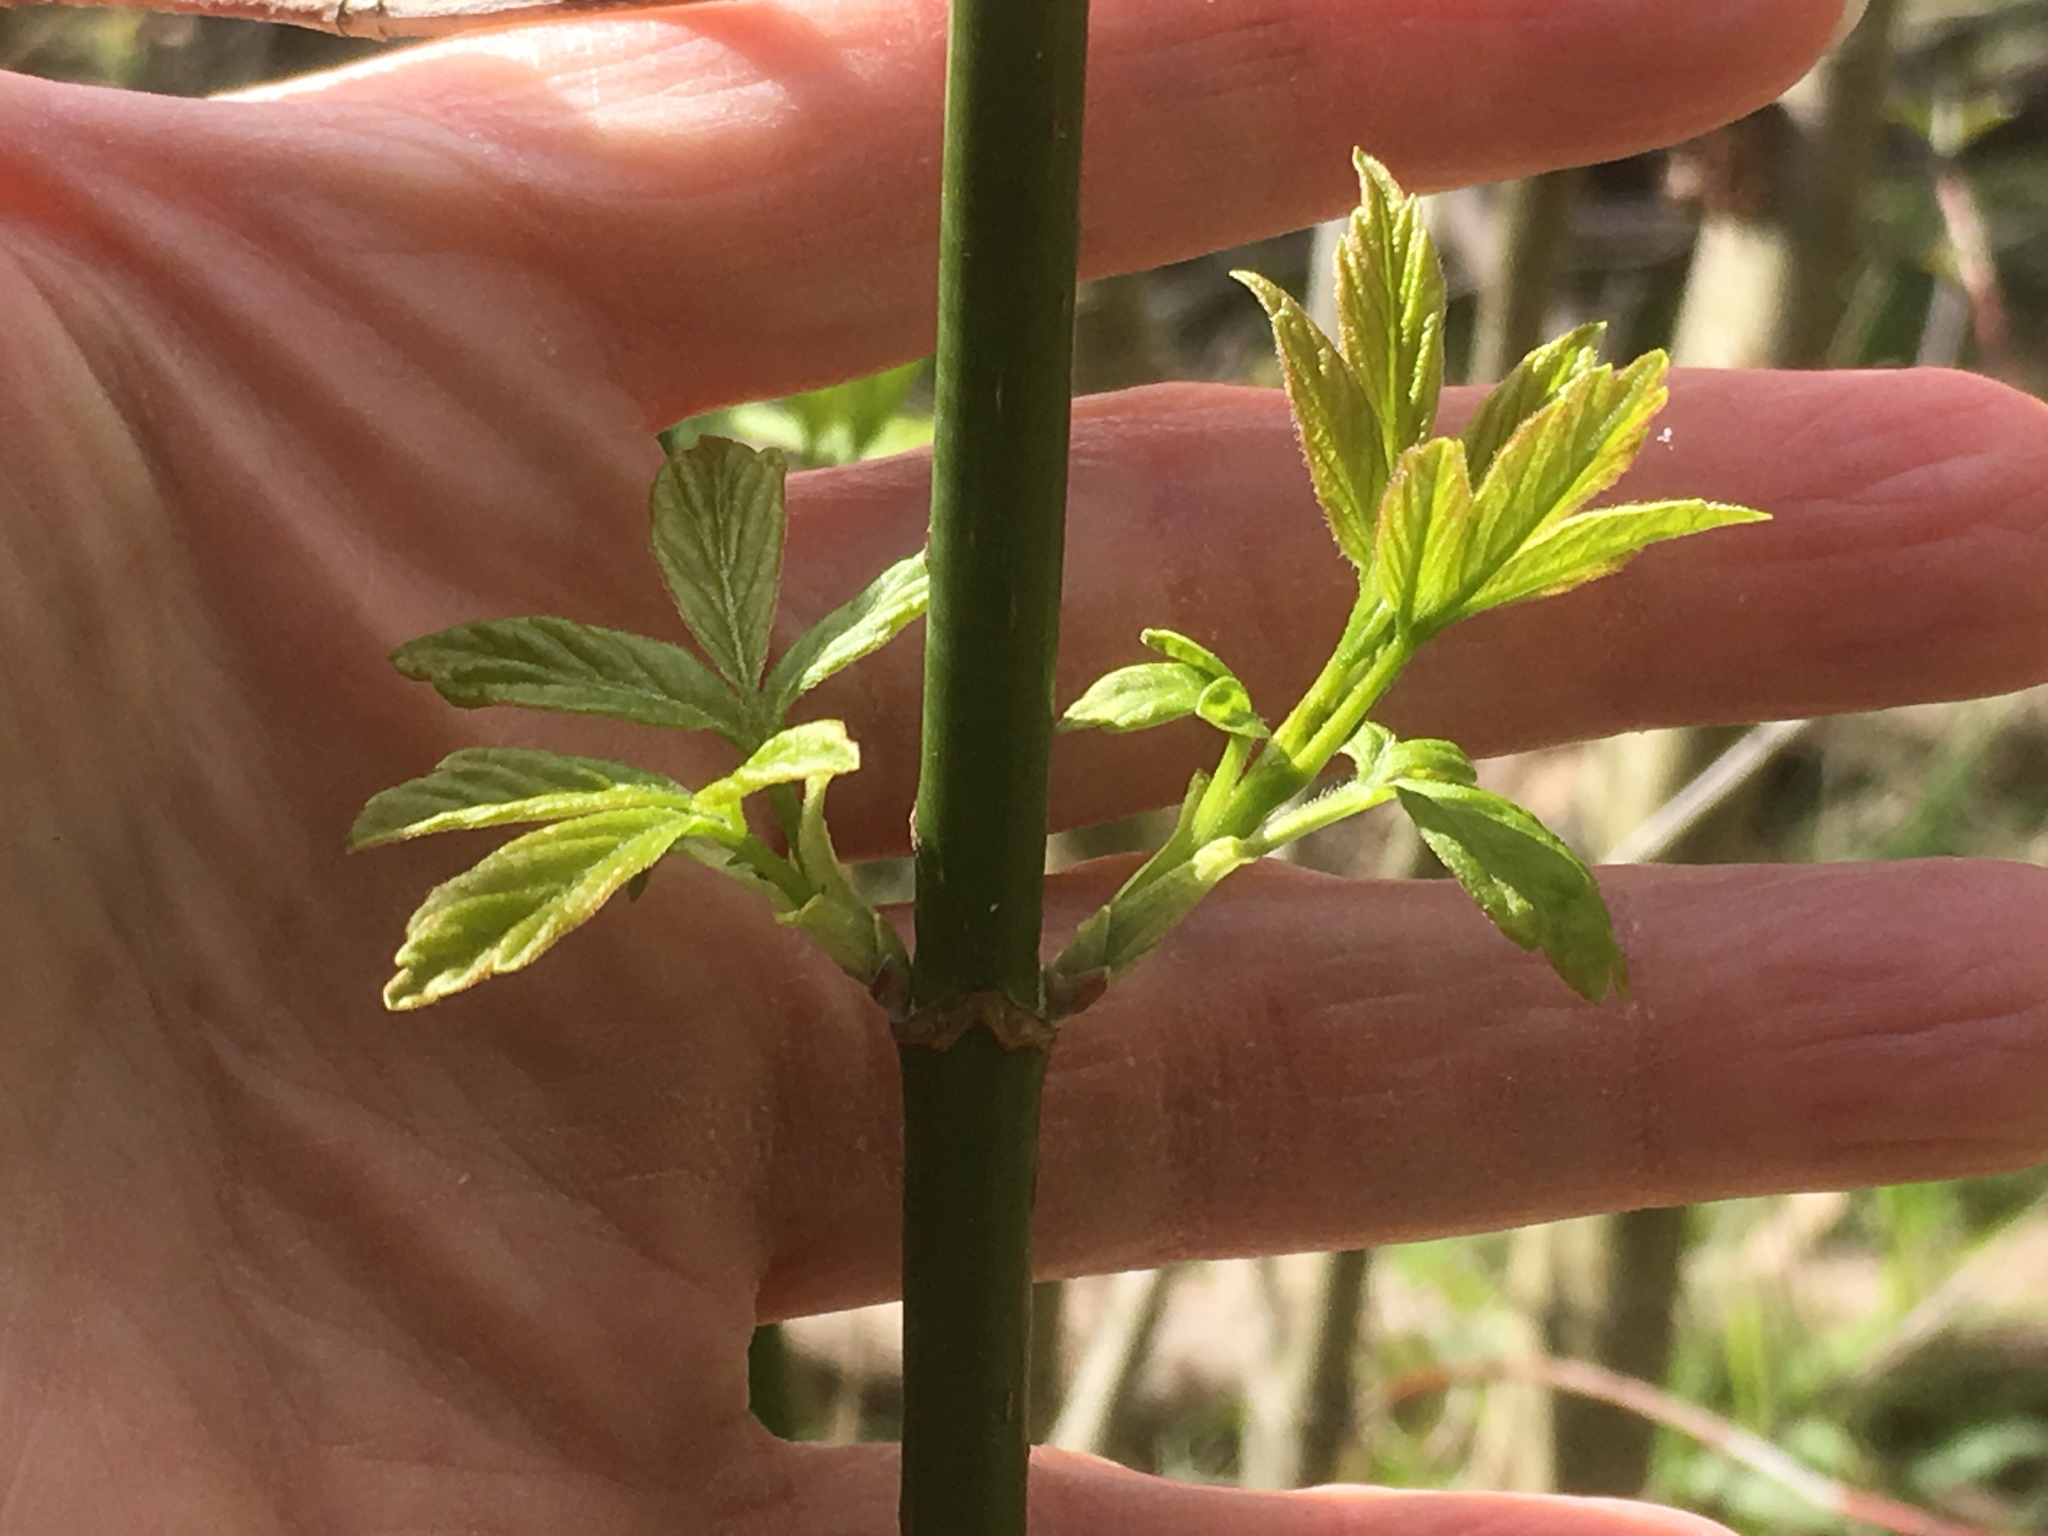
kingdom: Plantae
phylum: Tracheophyta
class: Magnoliopsida
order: Sapindales
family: Sapindaceae
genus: Acer
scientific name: Acer negundo
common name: Ashleaf maple
